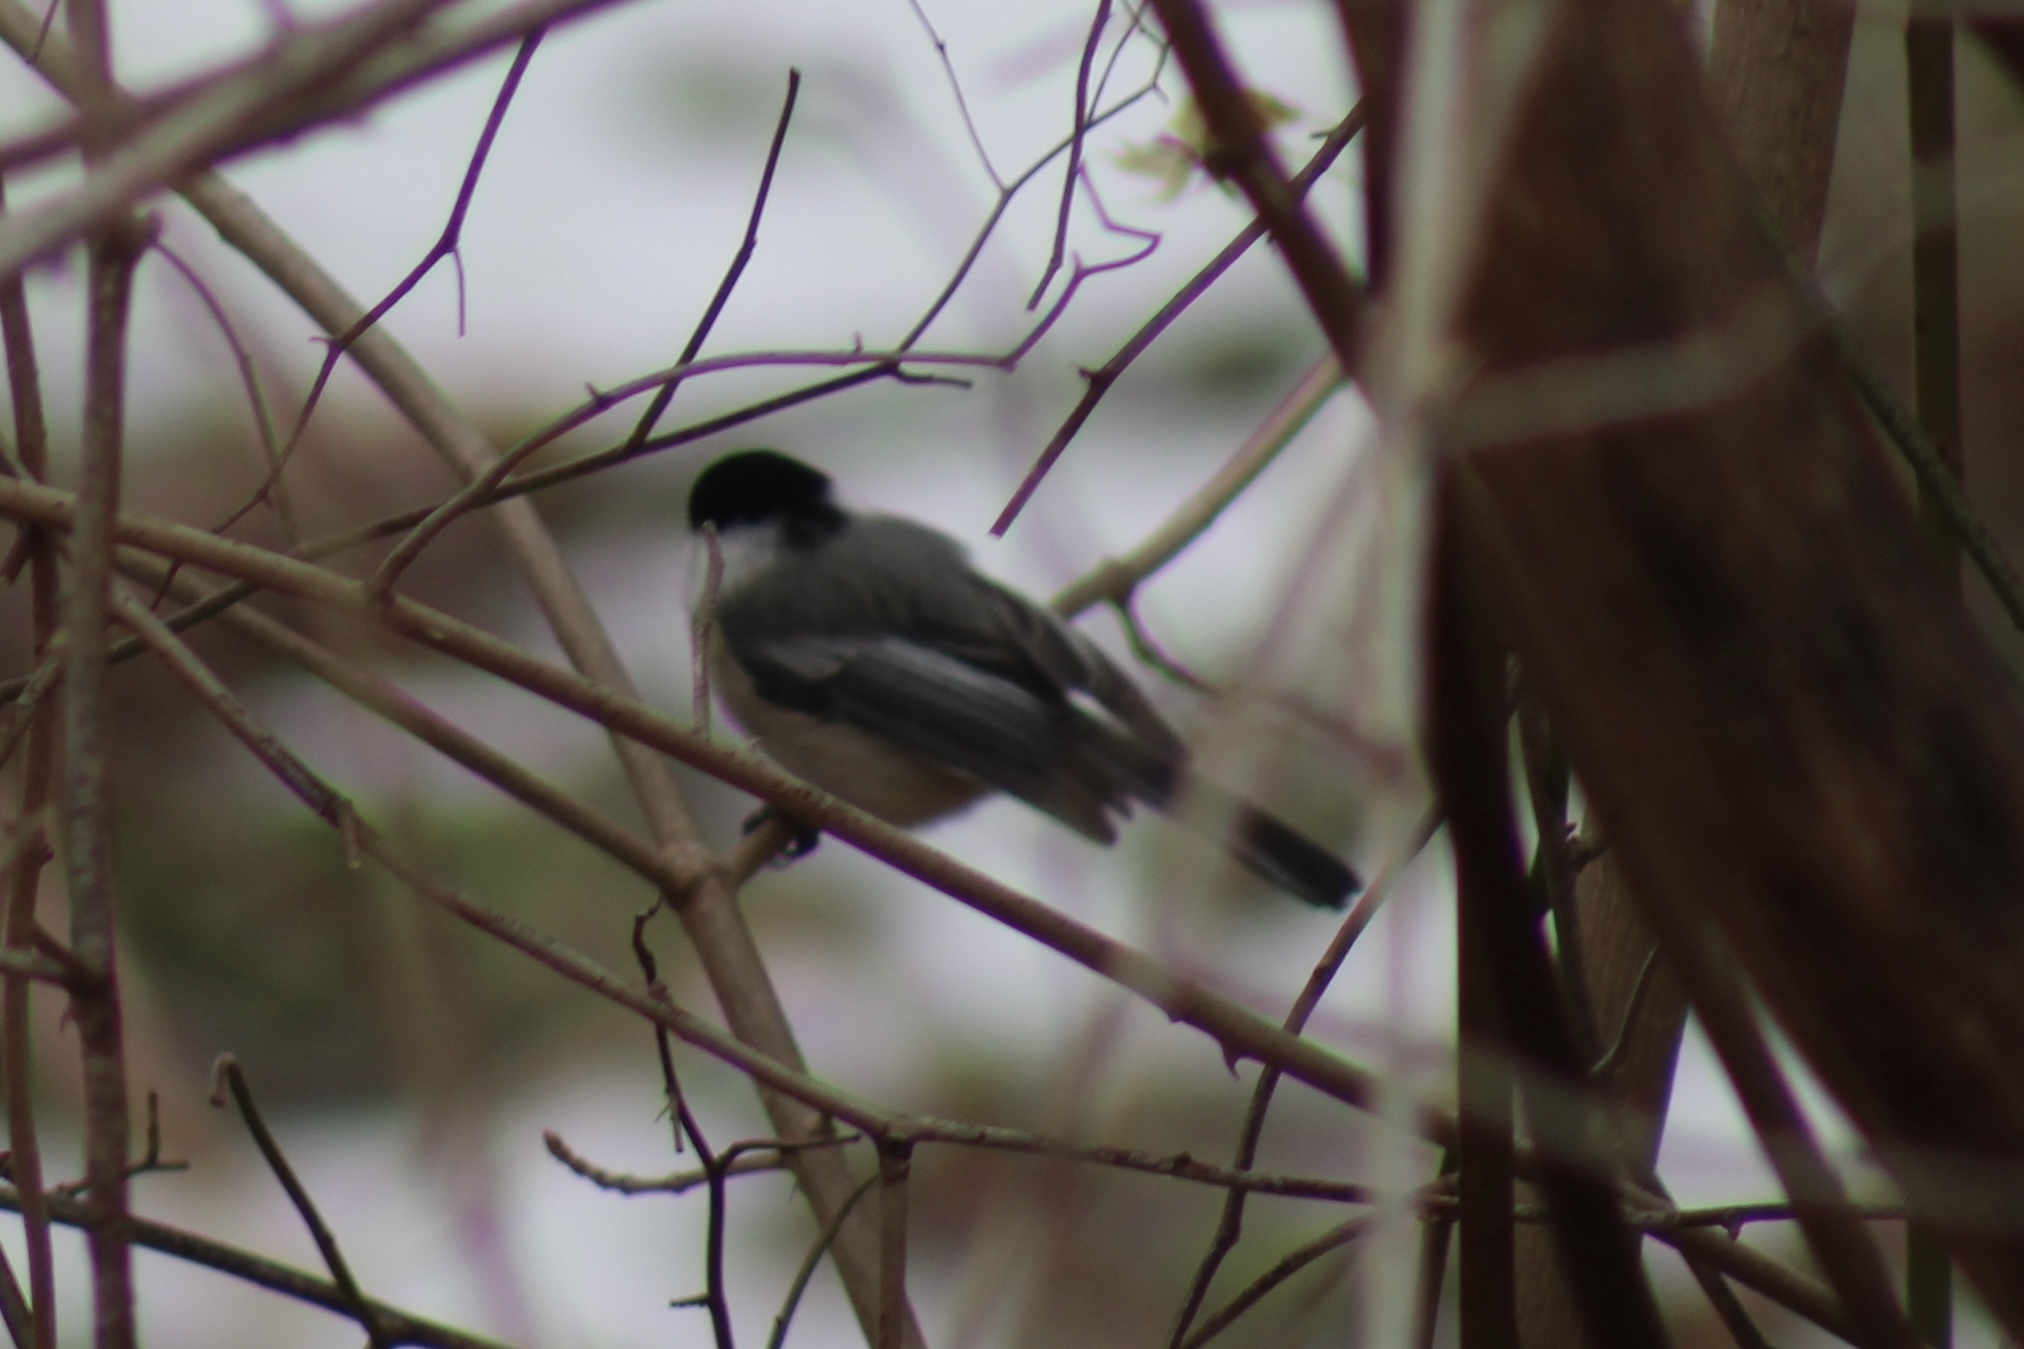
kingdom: Animalia
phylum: Chordata
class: Aves
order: Passeriformes
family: Paridae
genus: Poecile
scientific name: Poecile atricapillus
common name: Black-capped chickadee
